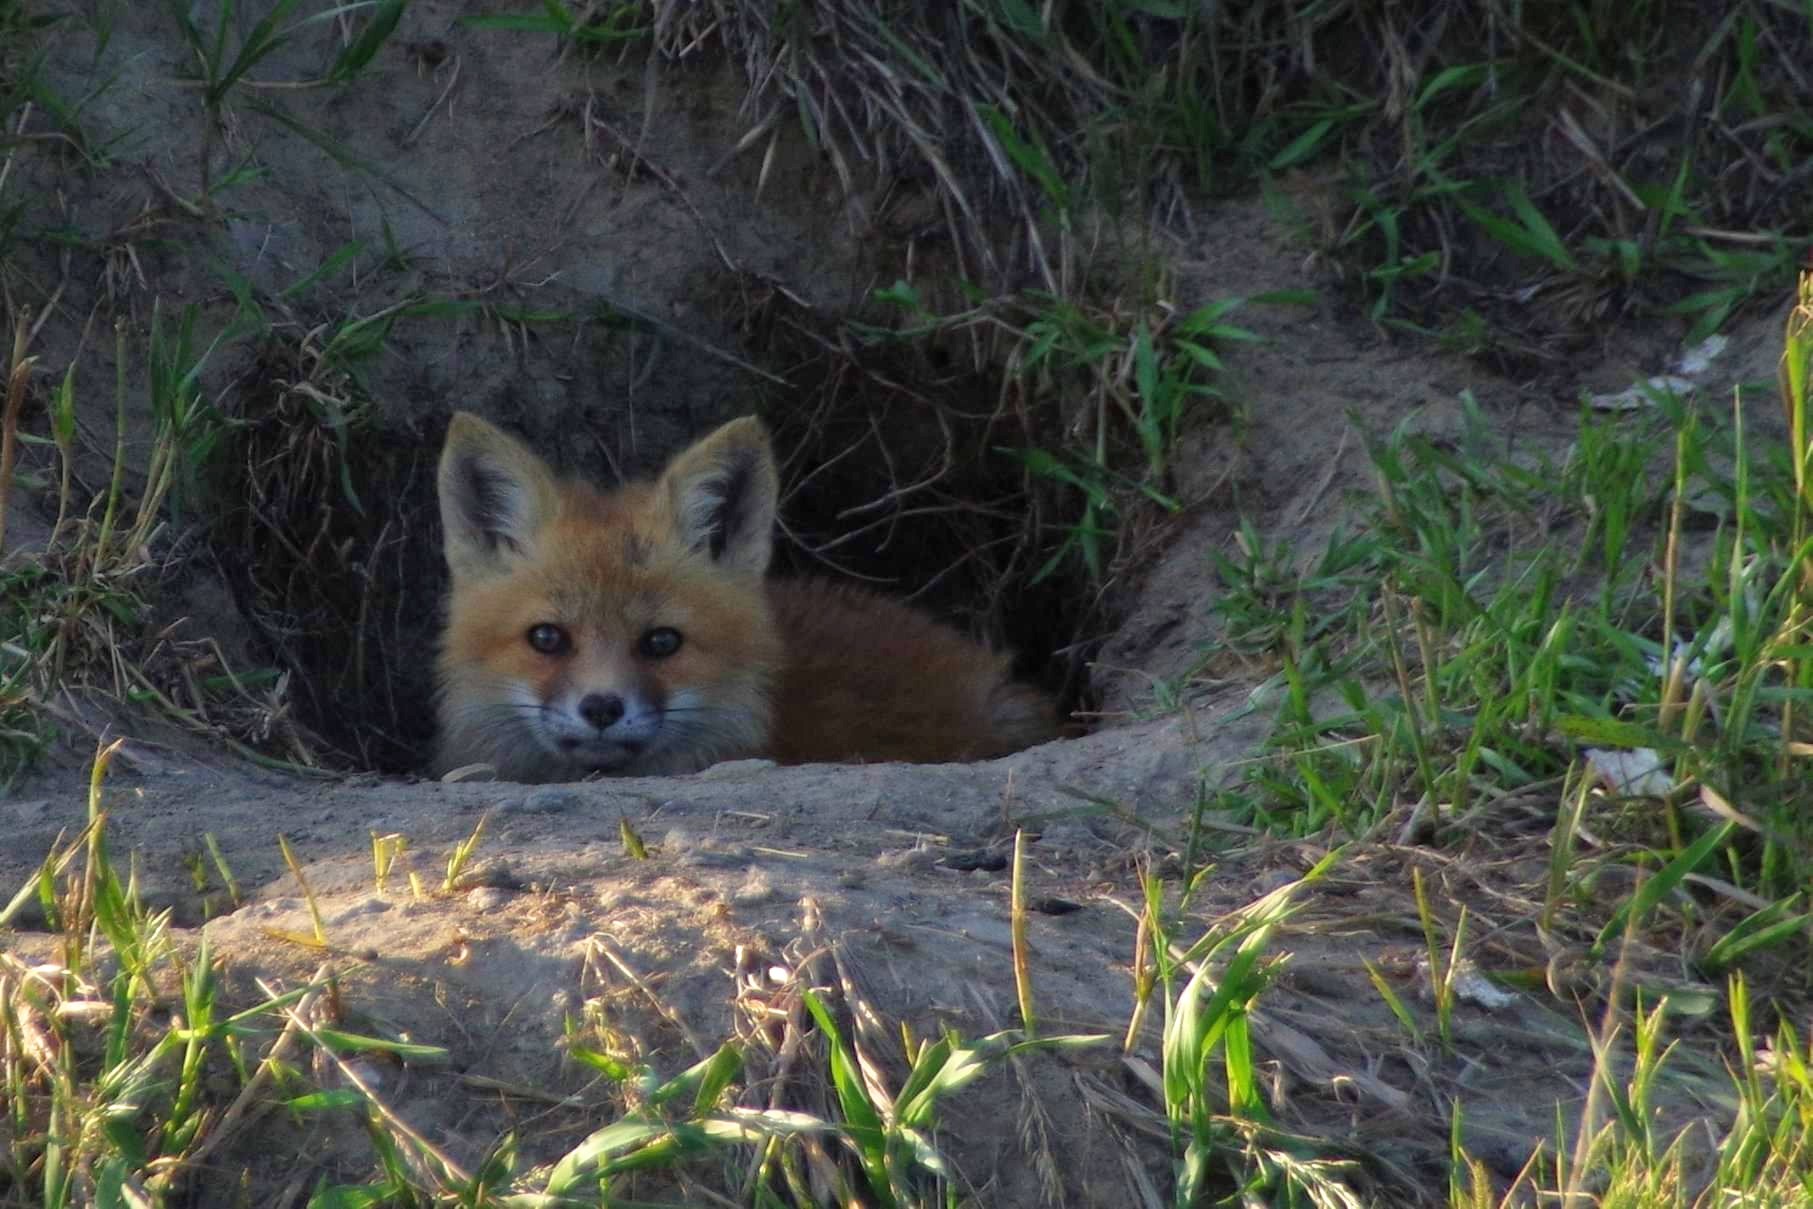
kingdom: Animalia
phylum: Chordata
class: Mammalia
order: Carnivora
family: Canidae
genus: Vulpes
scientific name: Vulpes vulpes
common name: Red fox
